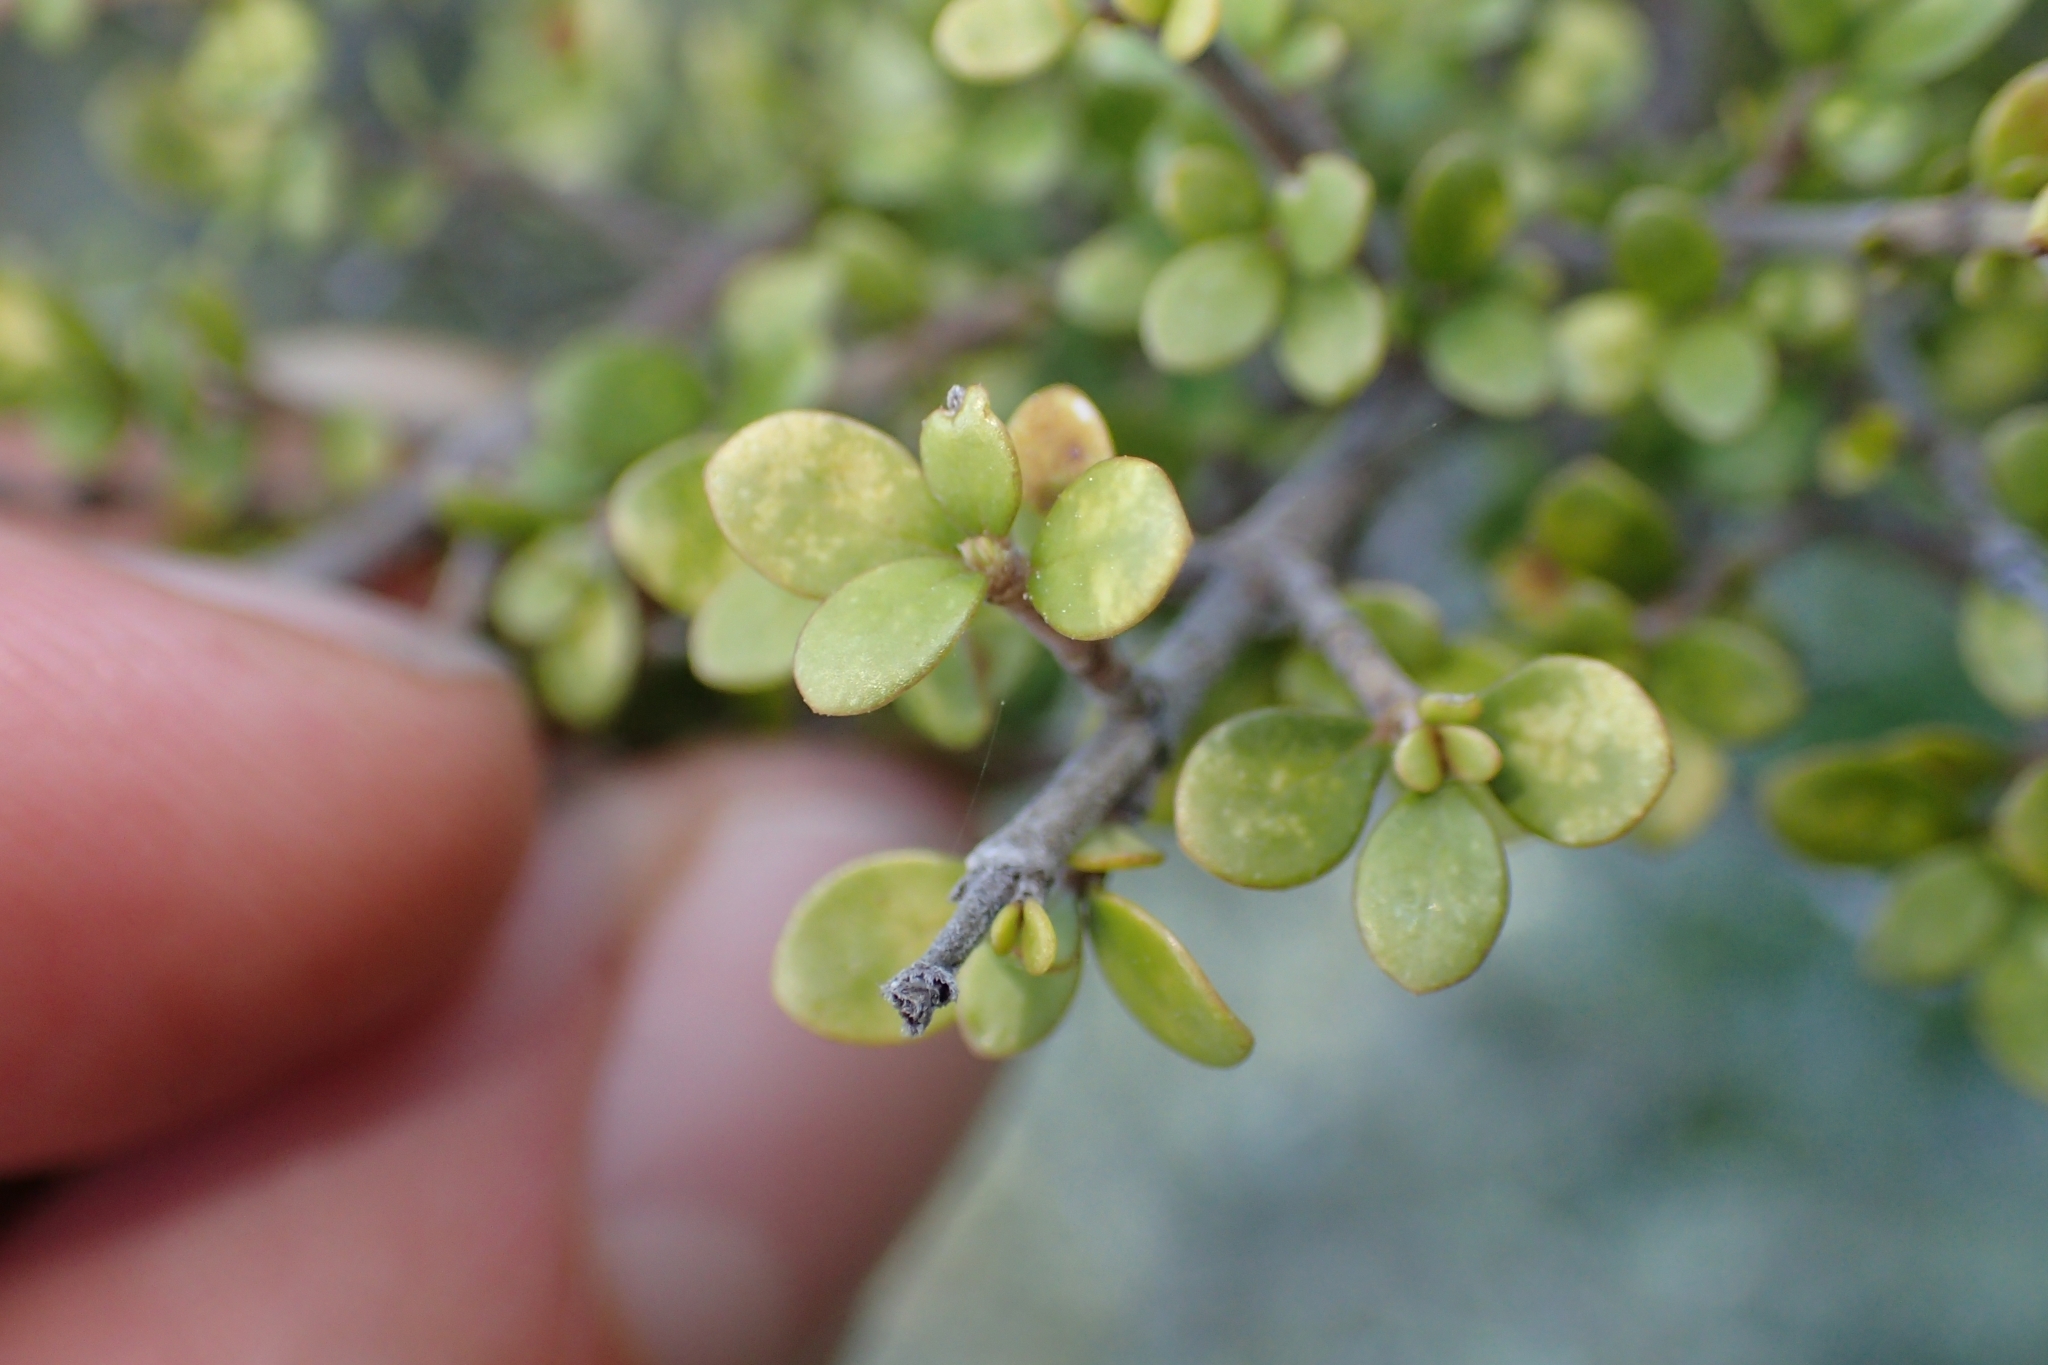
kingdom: Plantae
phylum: Tracheophyta
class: Magnoliopsida
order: Gentianales
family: Rubiaceae
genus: Coprosma
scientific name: Coprosma parviflora
